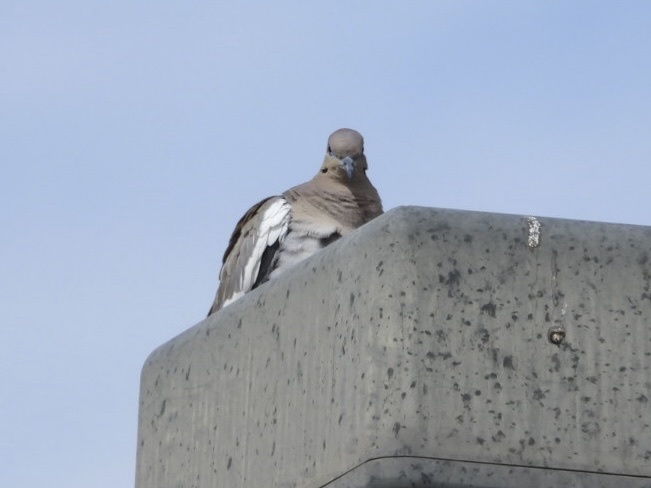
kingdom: Animalia
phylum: Chordata
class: Aves
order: Columbiformes
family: Columbidae
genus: Zenaida
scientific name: Zenaida asiatica
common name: White-winged dove
